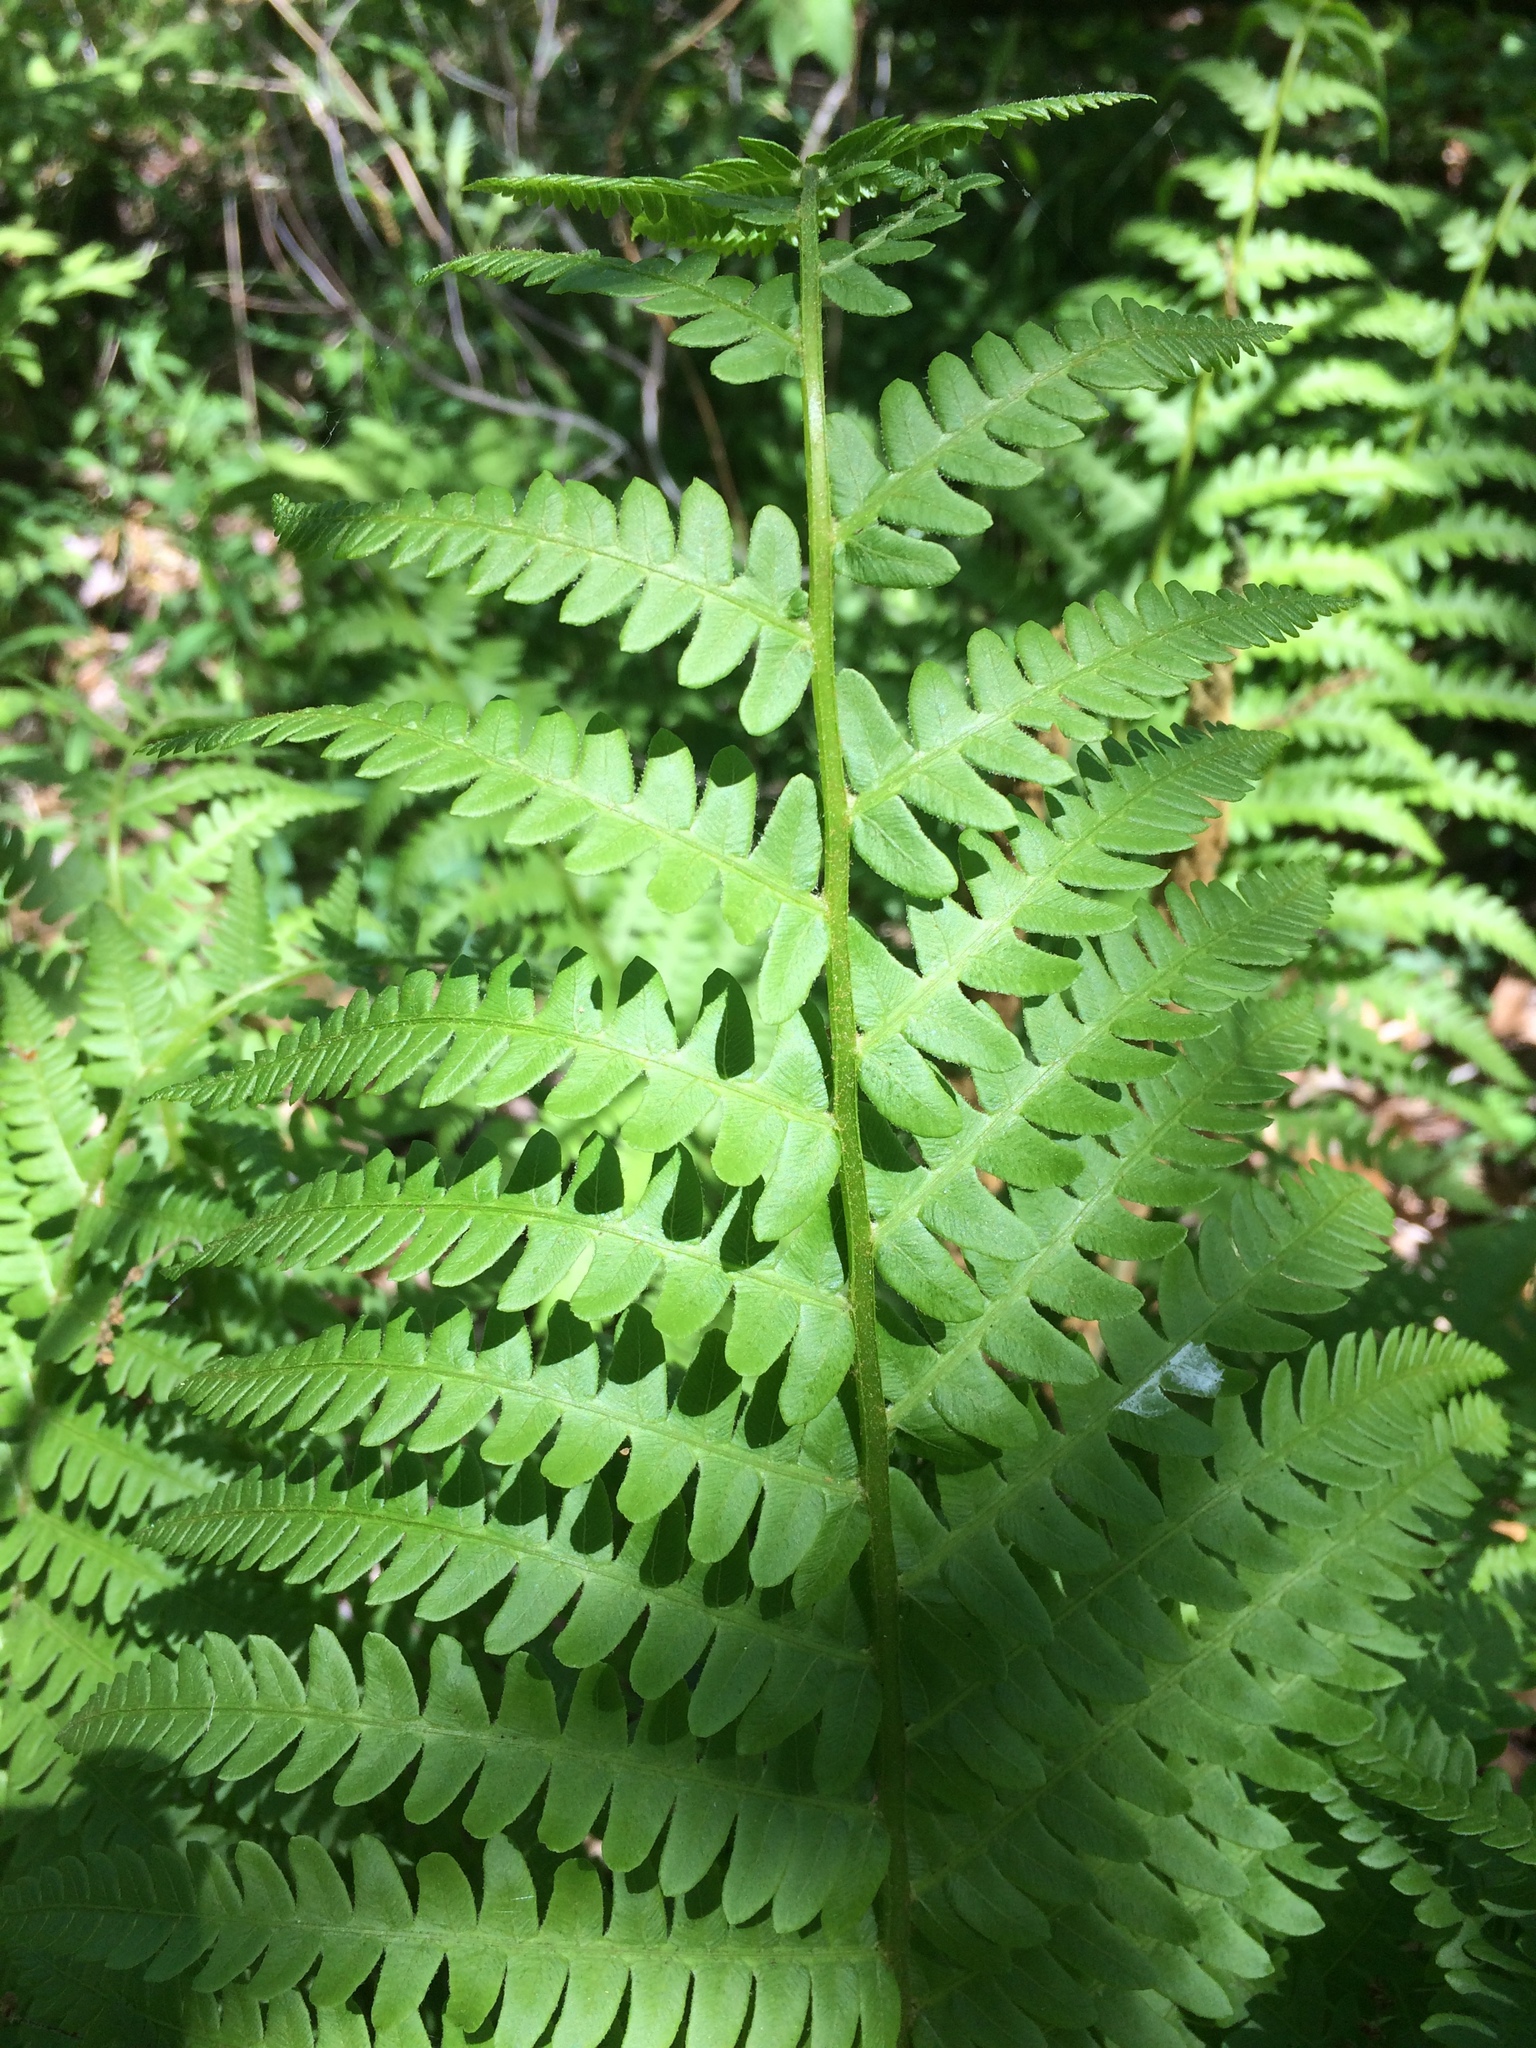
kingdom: Plantae
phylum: Tracheophyta
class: Polypodiopsida
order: Osmundales
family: Osmundaceae
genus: Osmundastrum
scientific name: Osmundastrum cinnamomeum
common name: Cinnamon fern
